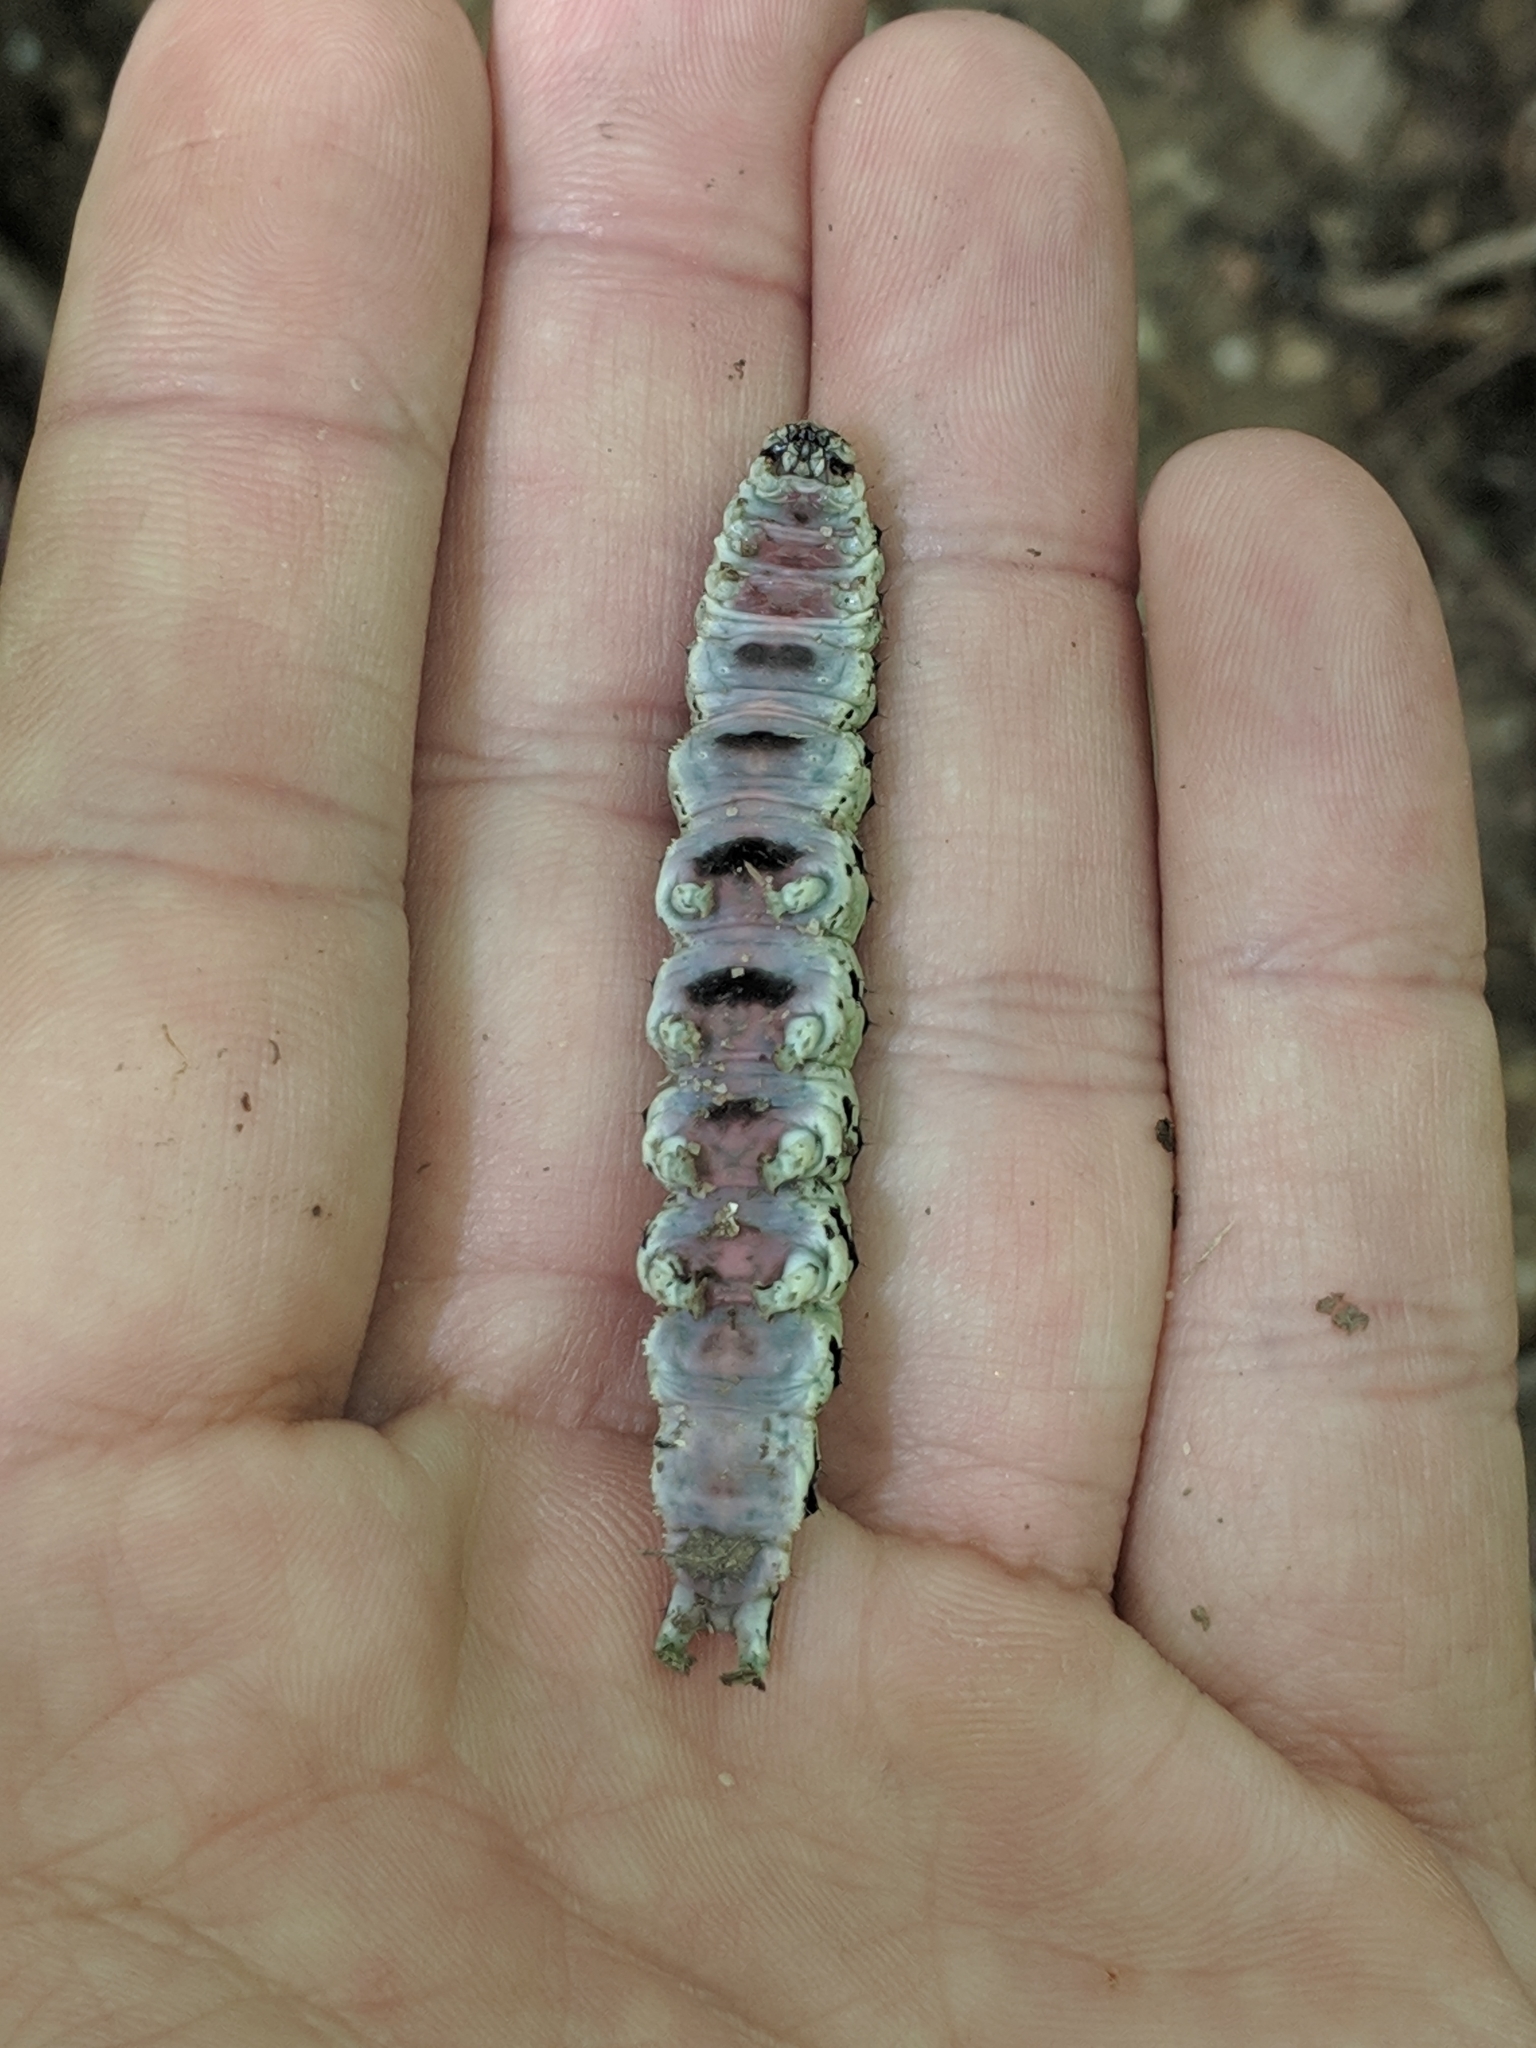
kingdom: Animalia
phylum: Arthropoda
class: Insecta
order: Lepidoptera
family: Erebidae
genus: Catocala
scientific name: Catocala ilia
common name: Ilia underwing
